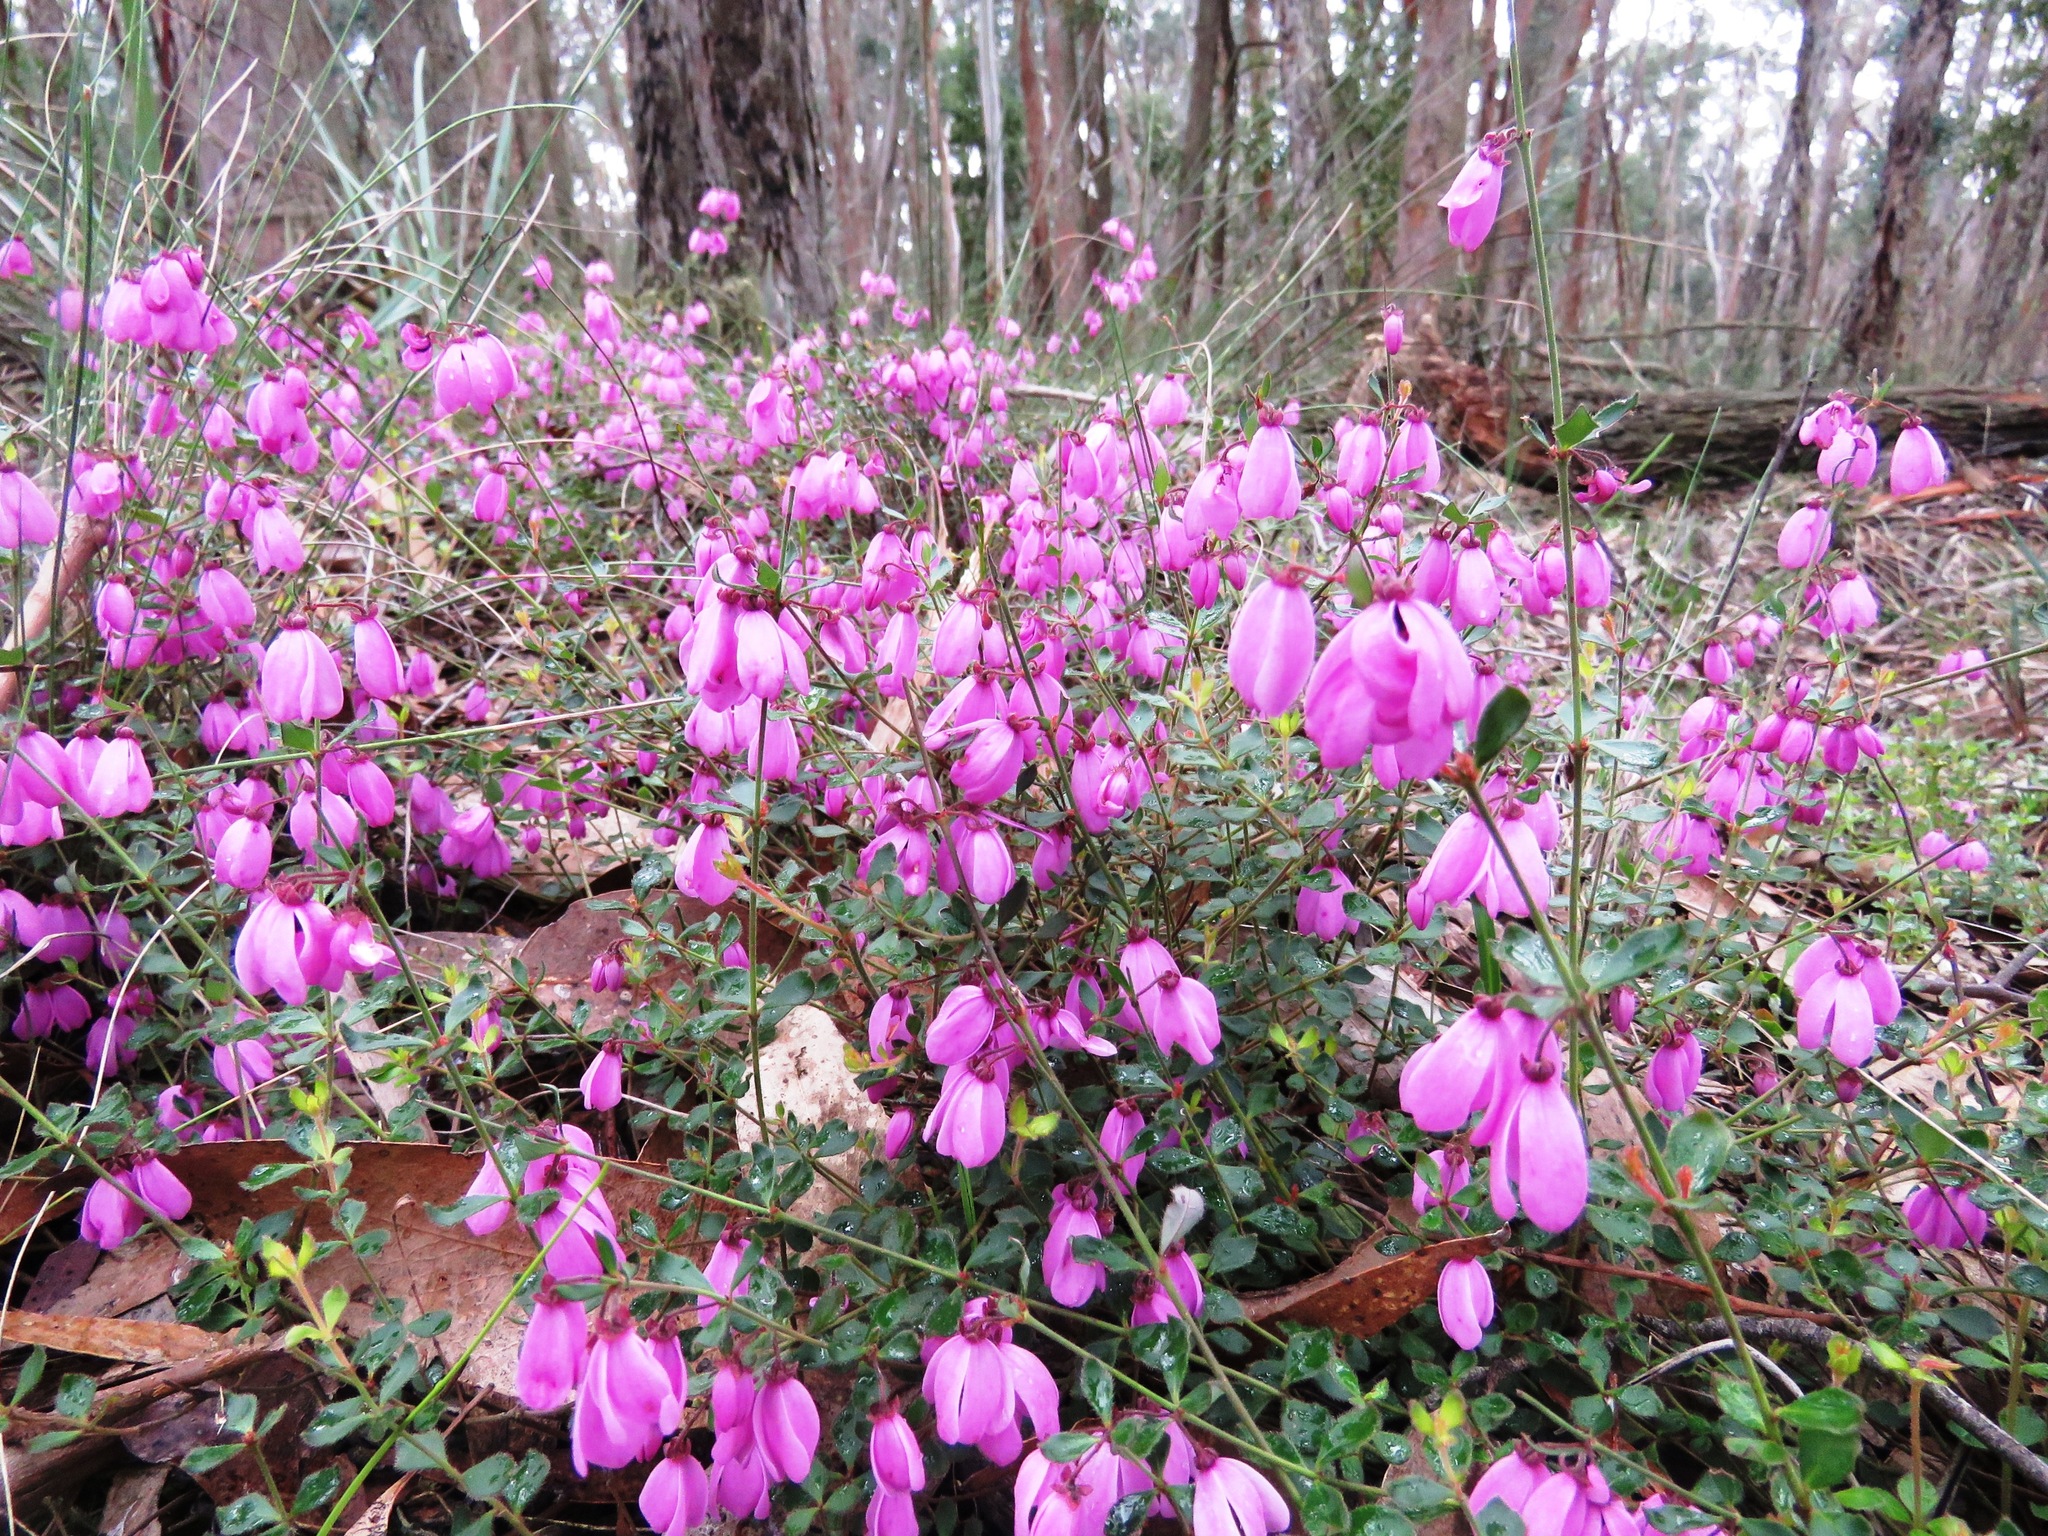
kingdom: Plantae
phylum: Tracheophyta
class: Magnoliopsida
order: Oxalidales
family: Elaeocarpaceae
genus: Tetratheca
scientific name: Tetratheca ciliata
